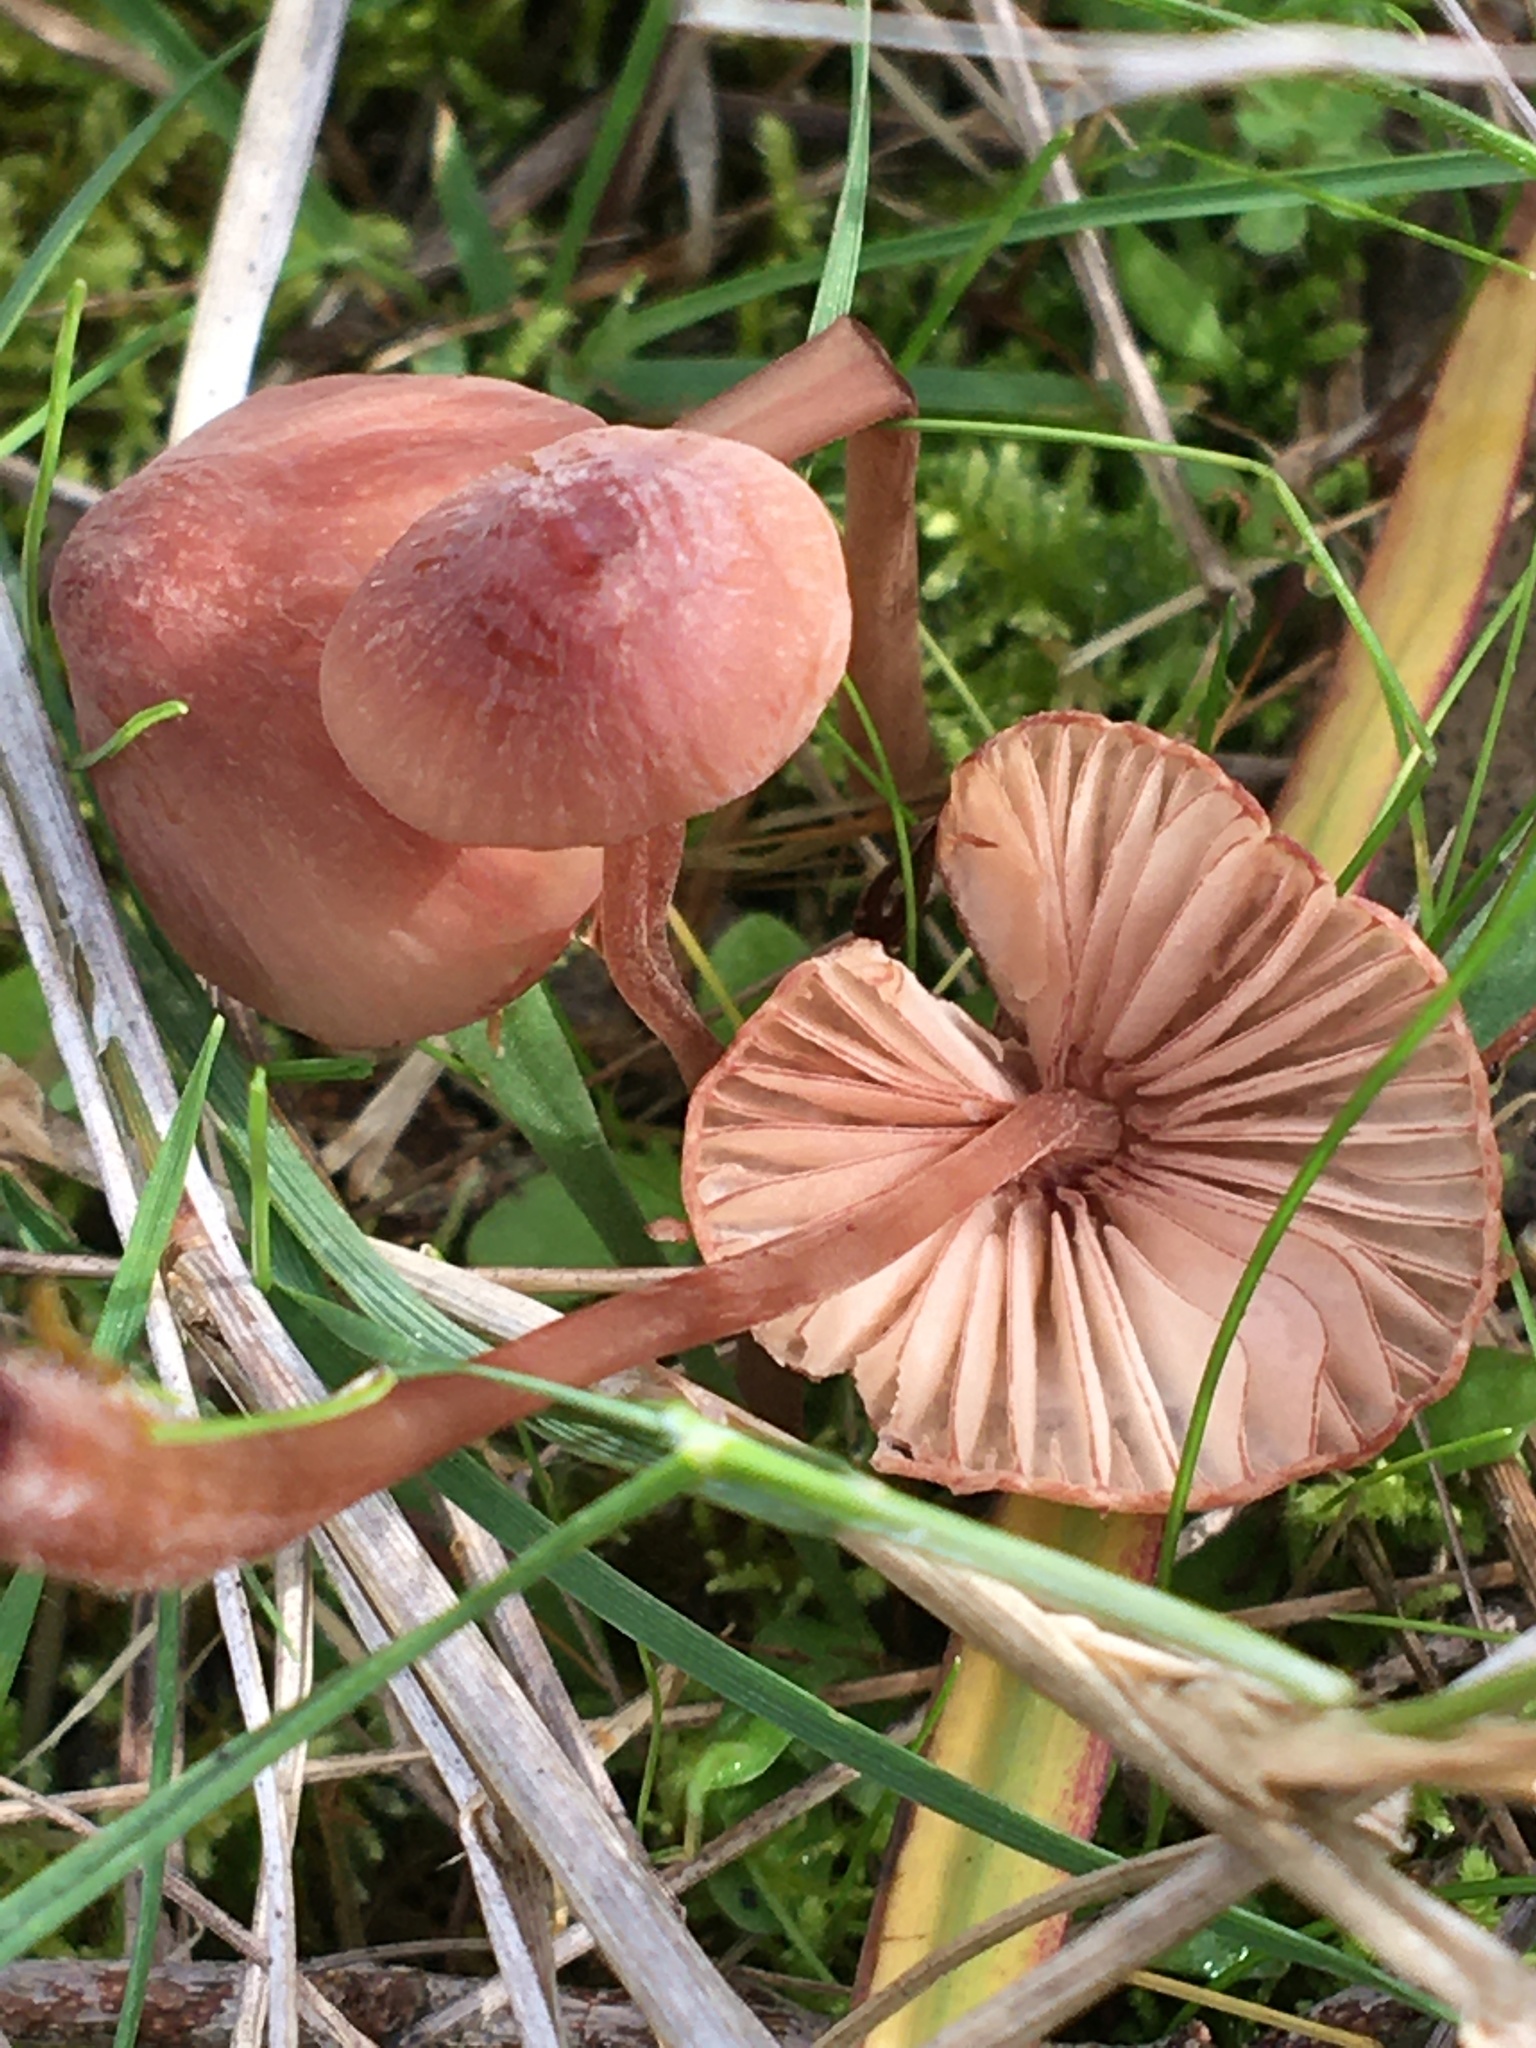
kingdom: Fungi
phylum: Basidiomycota
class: Agaricomycetes
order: Agaricales
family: Mycenaceae
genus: Mycena
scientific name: Mycena kuurkacea
